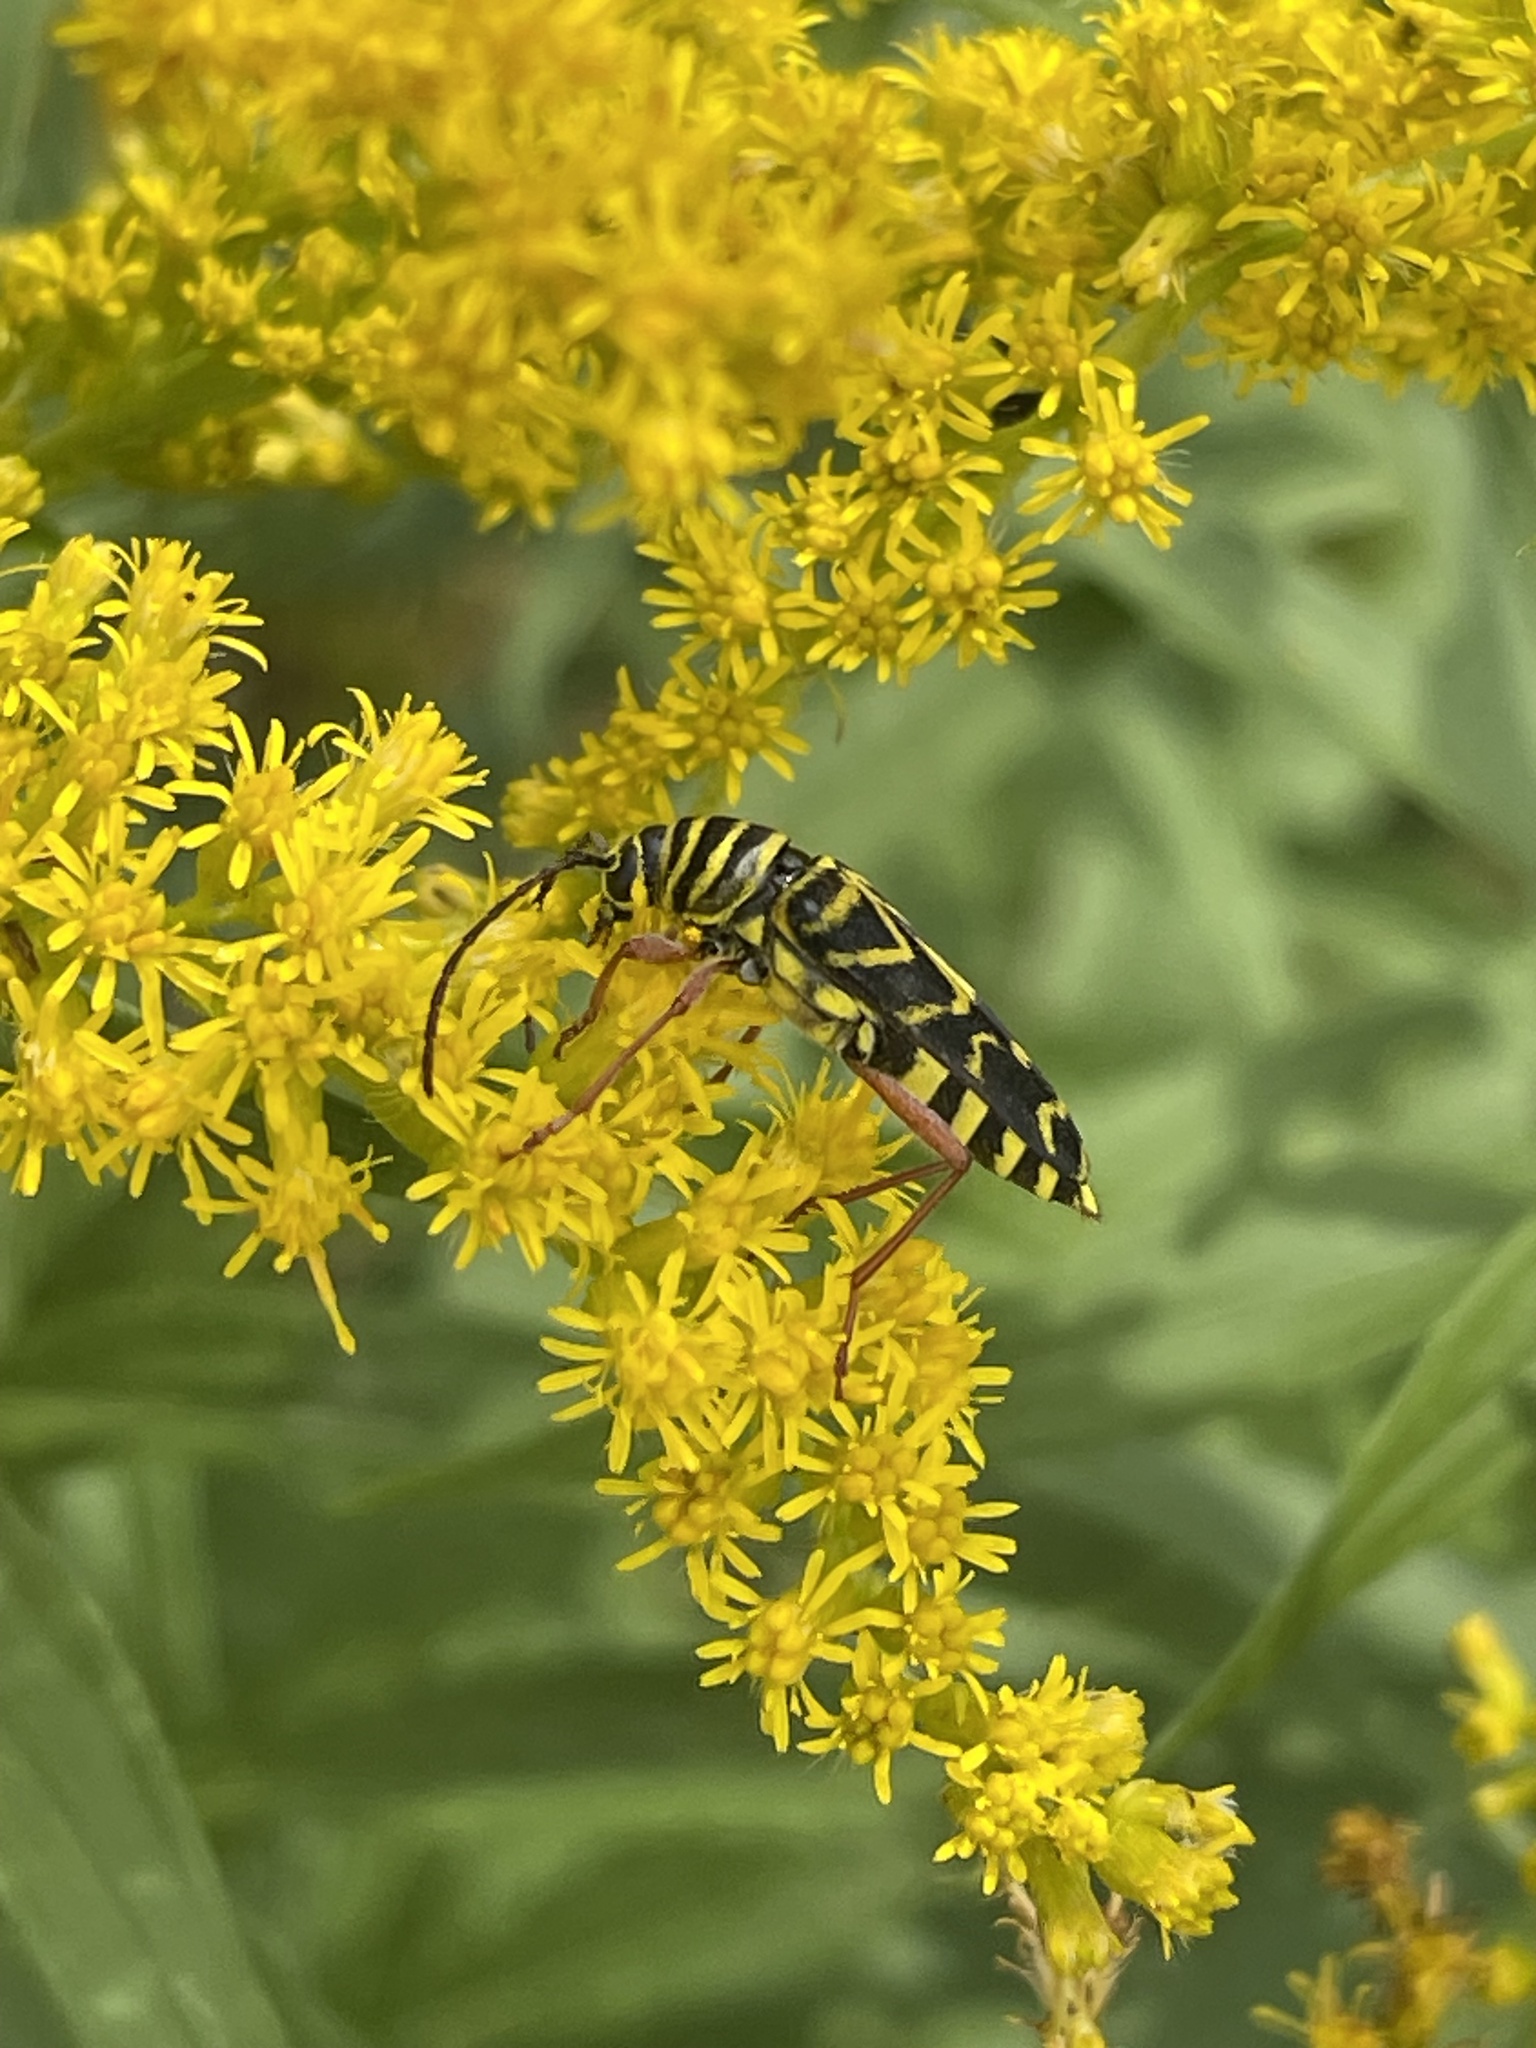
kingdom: Animalia
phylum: Arthropoda
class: Insecta
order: Coleoptera
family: Cerambycidae
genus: Megacyllene
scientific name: Megacyllene robiniae
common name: Locust borer
